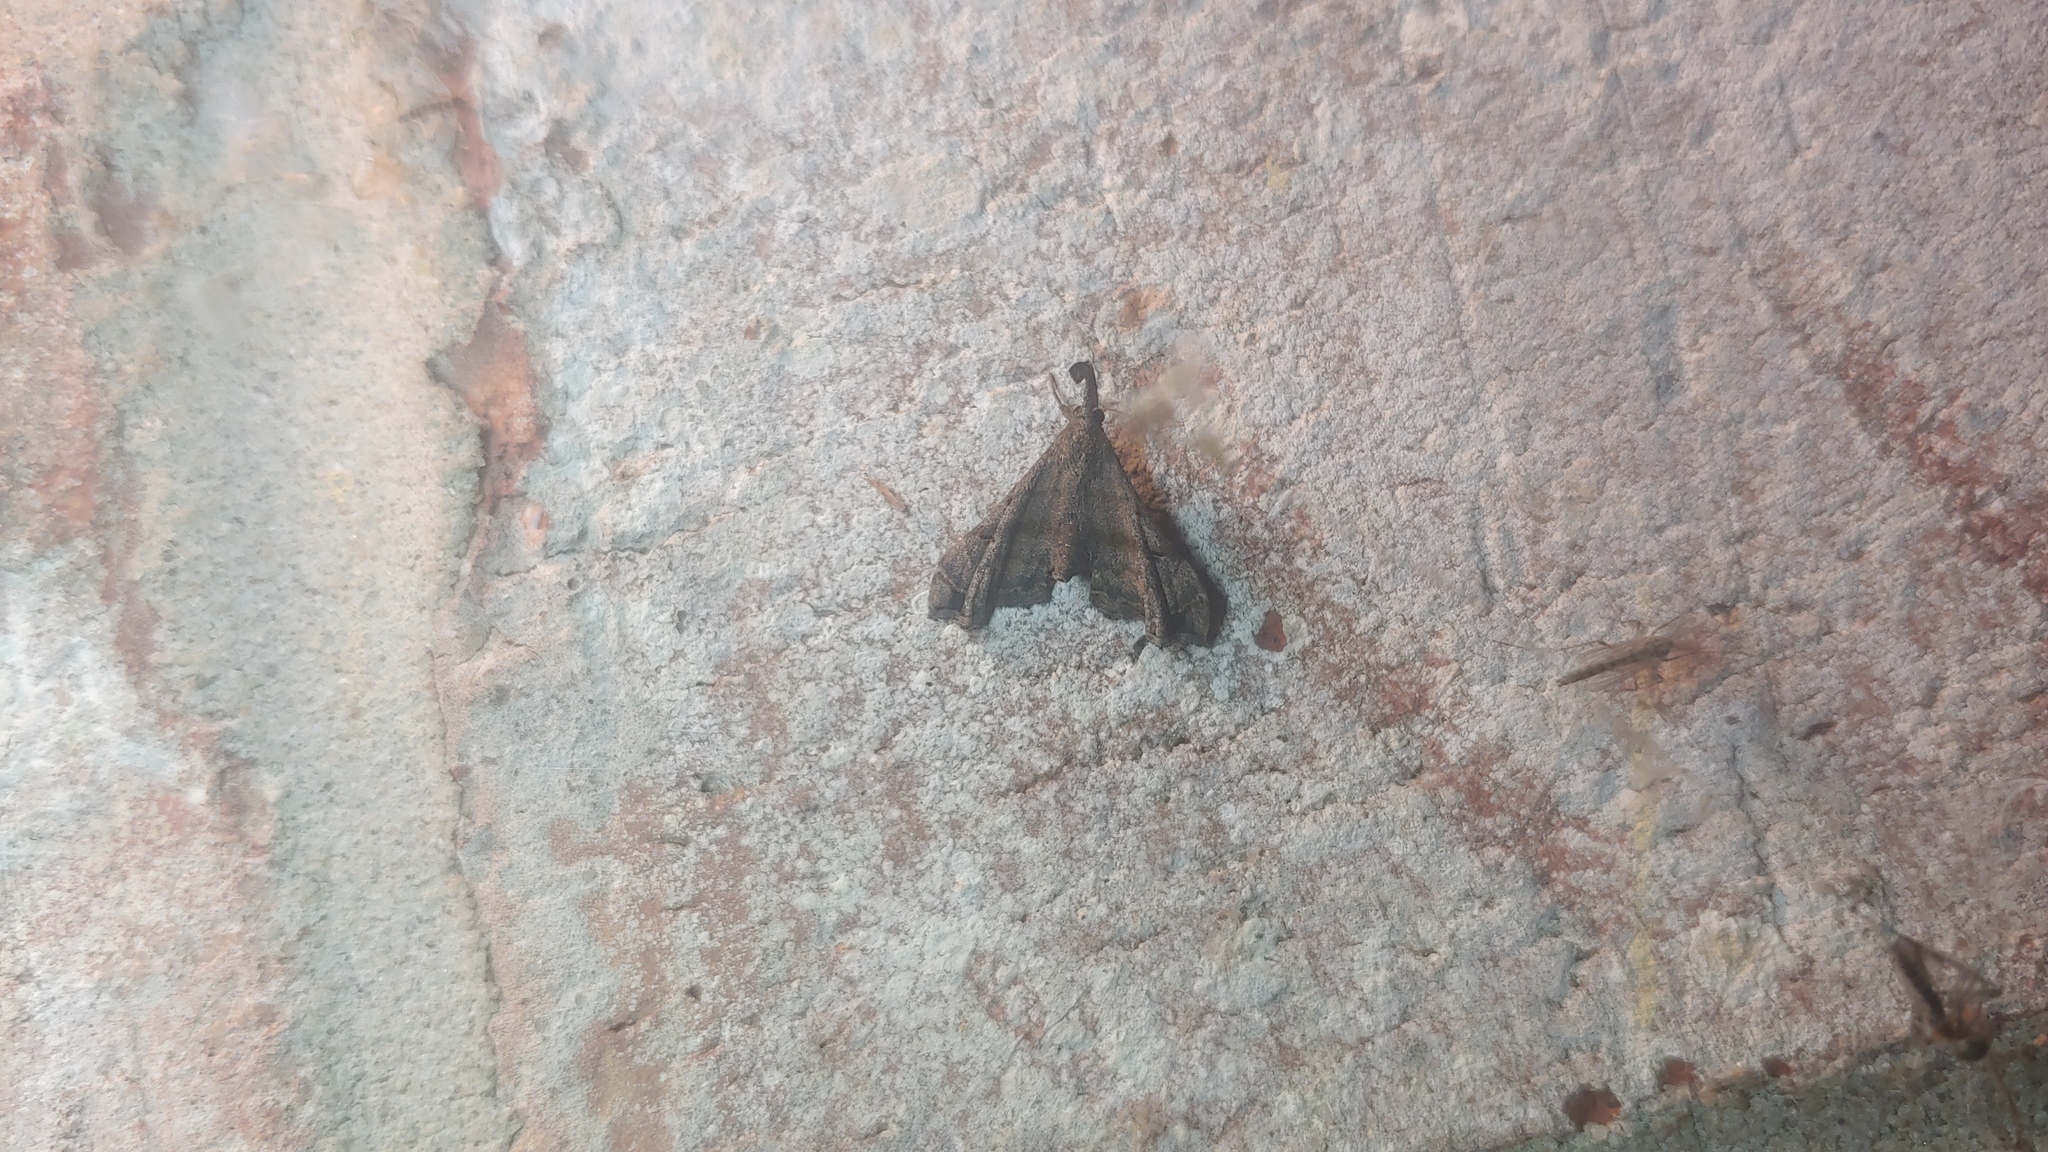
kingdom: Animalia
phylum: Arthropoda
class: Insecta
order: Lepidoptera
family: Erebidae
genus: Palthis
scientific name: Palthis asopialis
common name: Faint-spotted palthis moth
